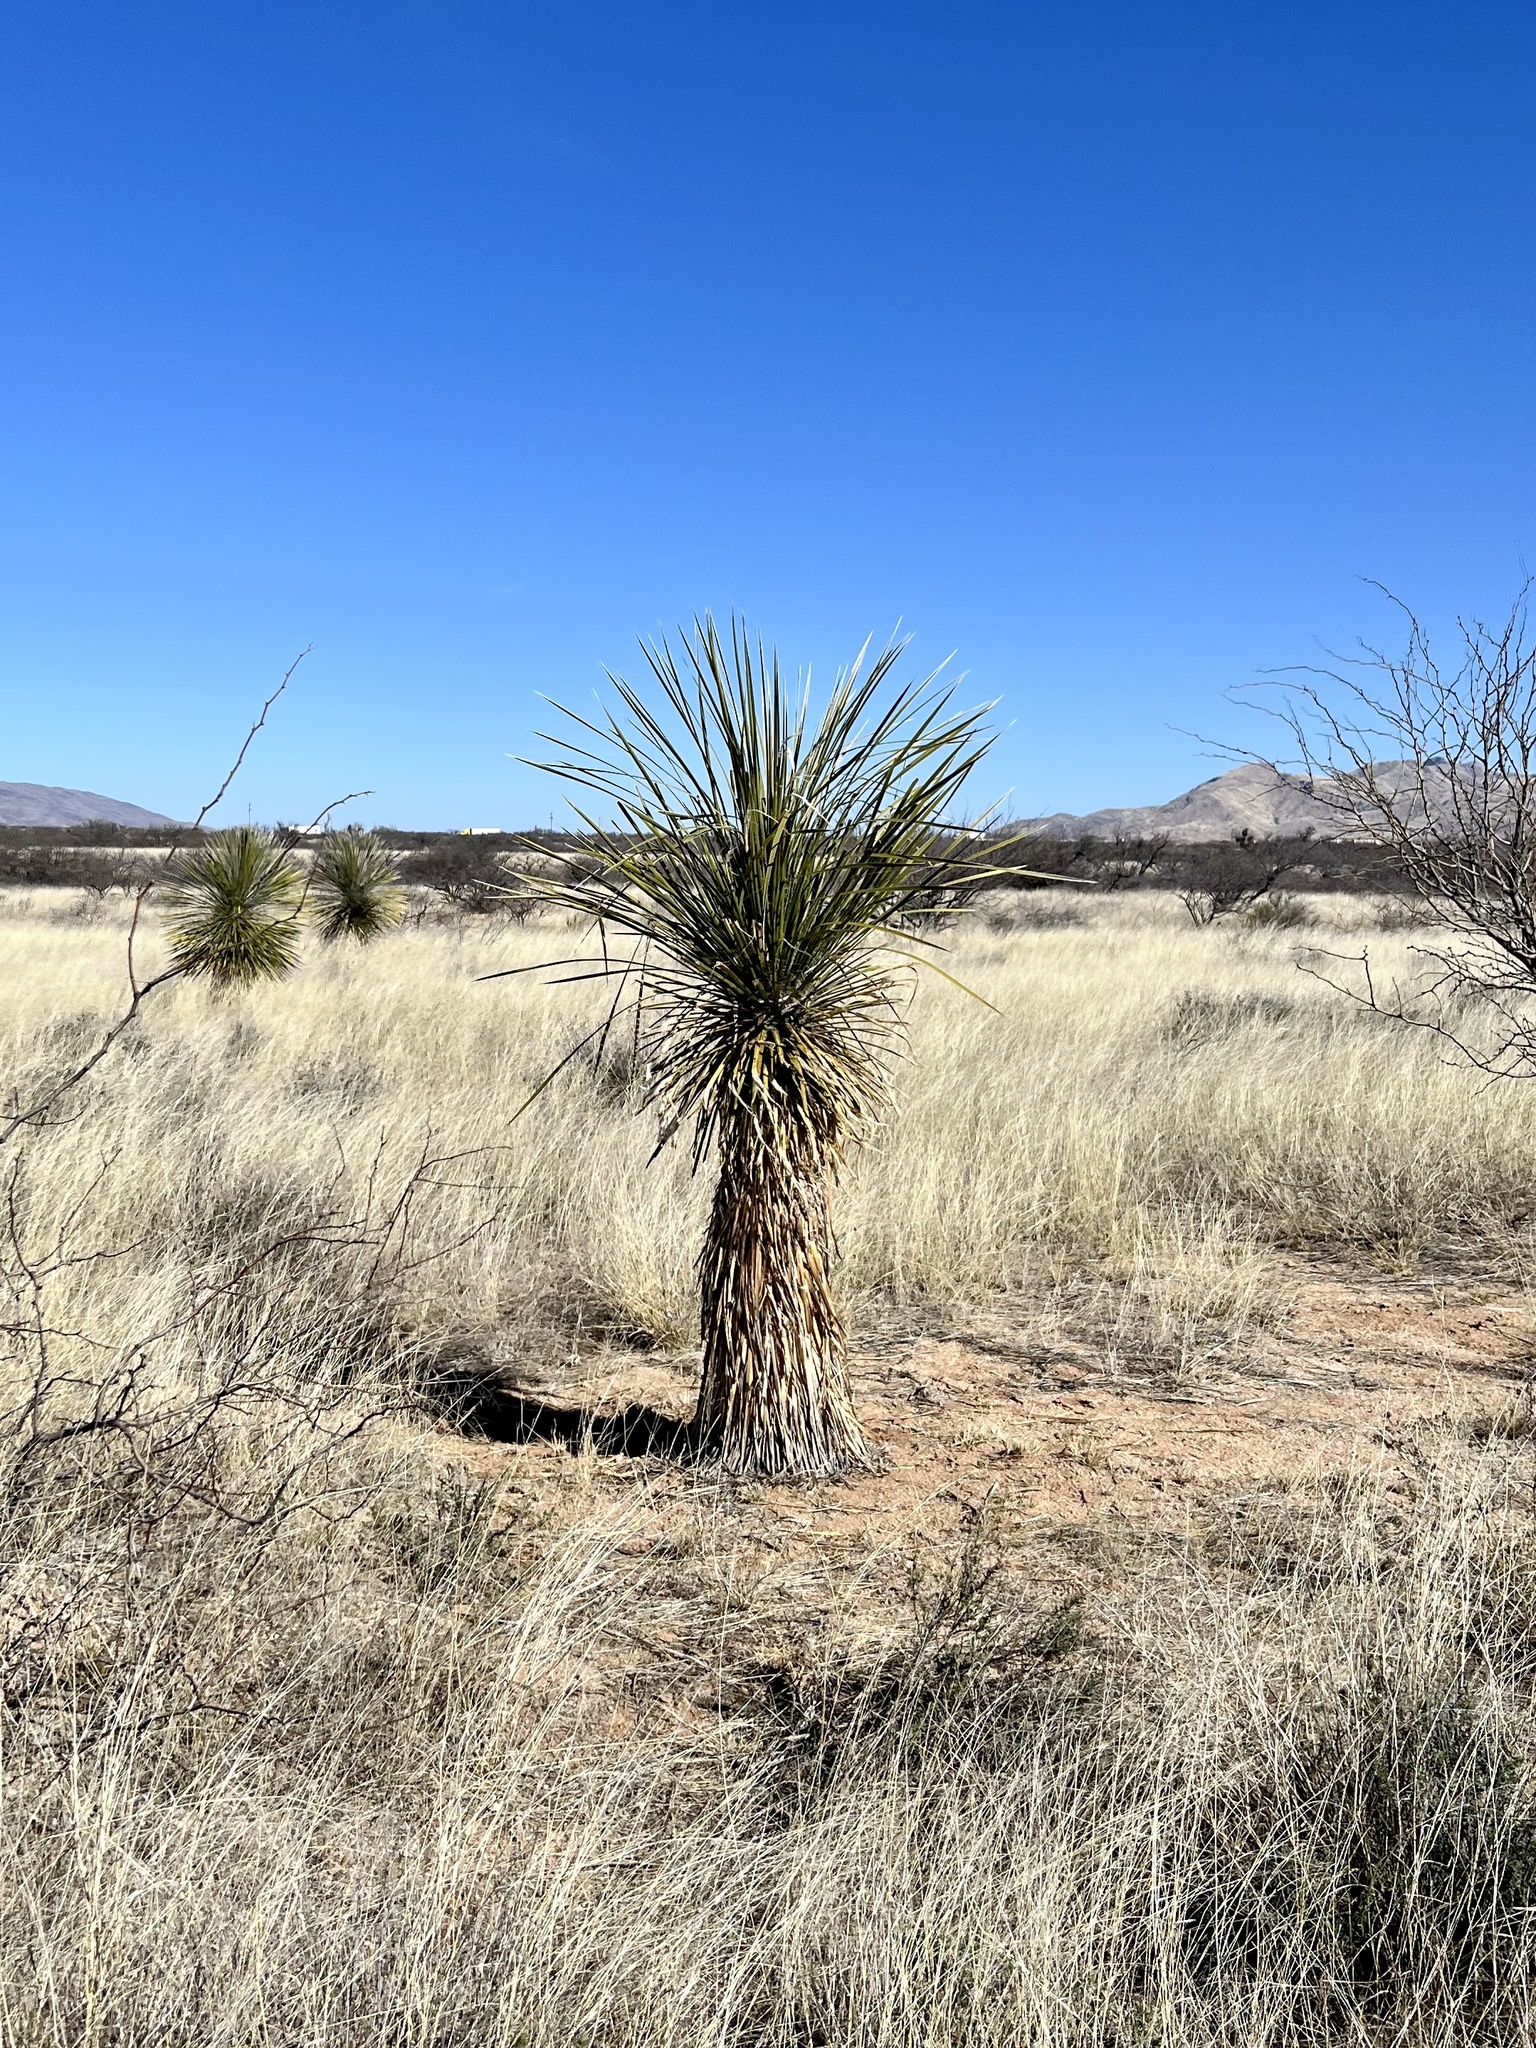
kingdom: Plantae
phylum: Tracheophyta
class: Liliopsida
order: Asparagales
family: Asparagaceae
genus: Yucca
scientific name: Yucca elata
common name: Palmella
